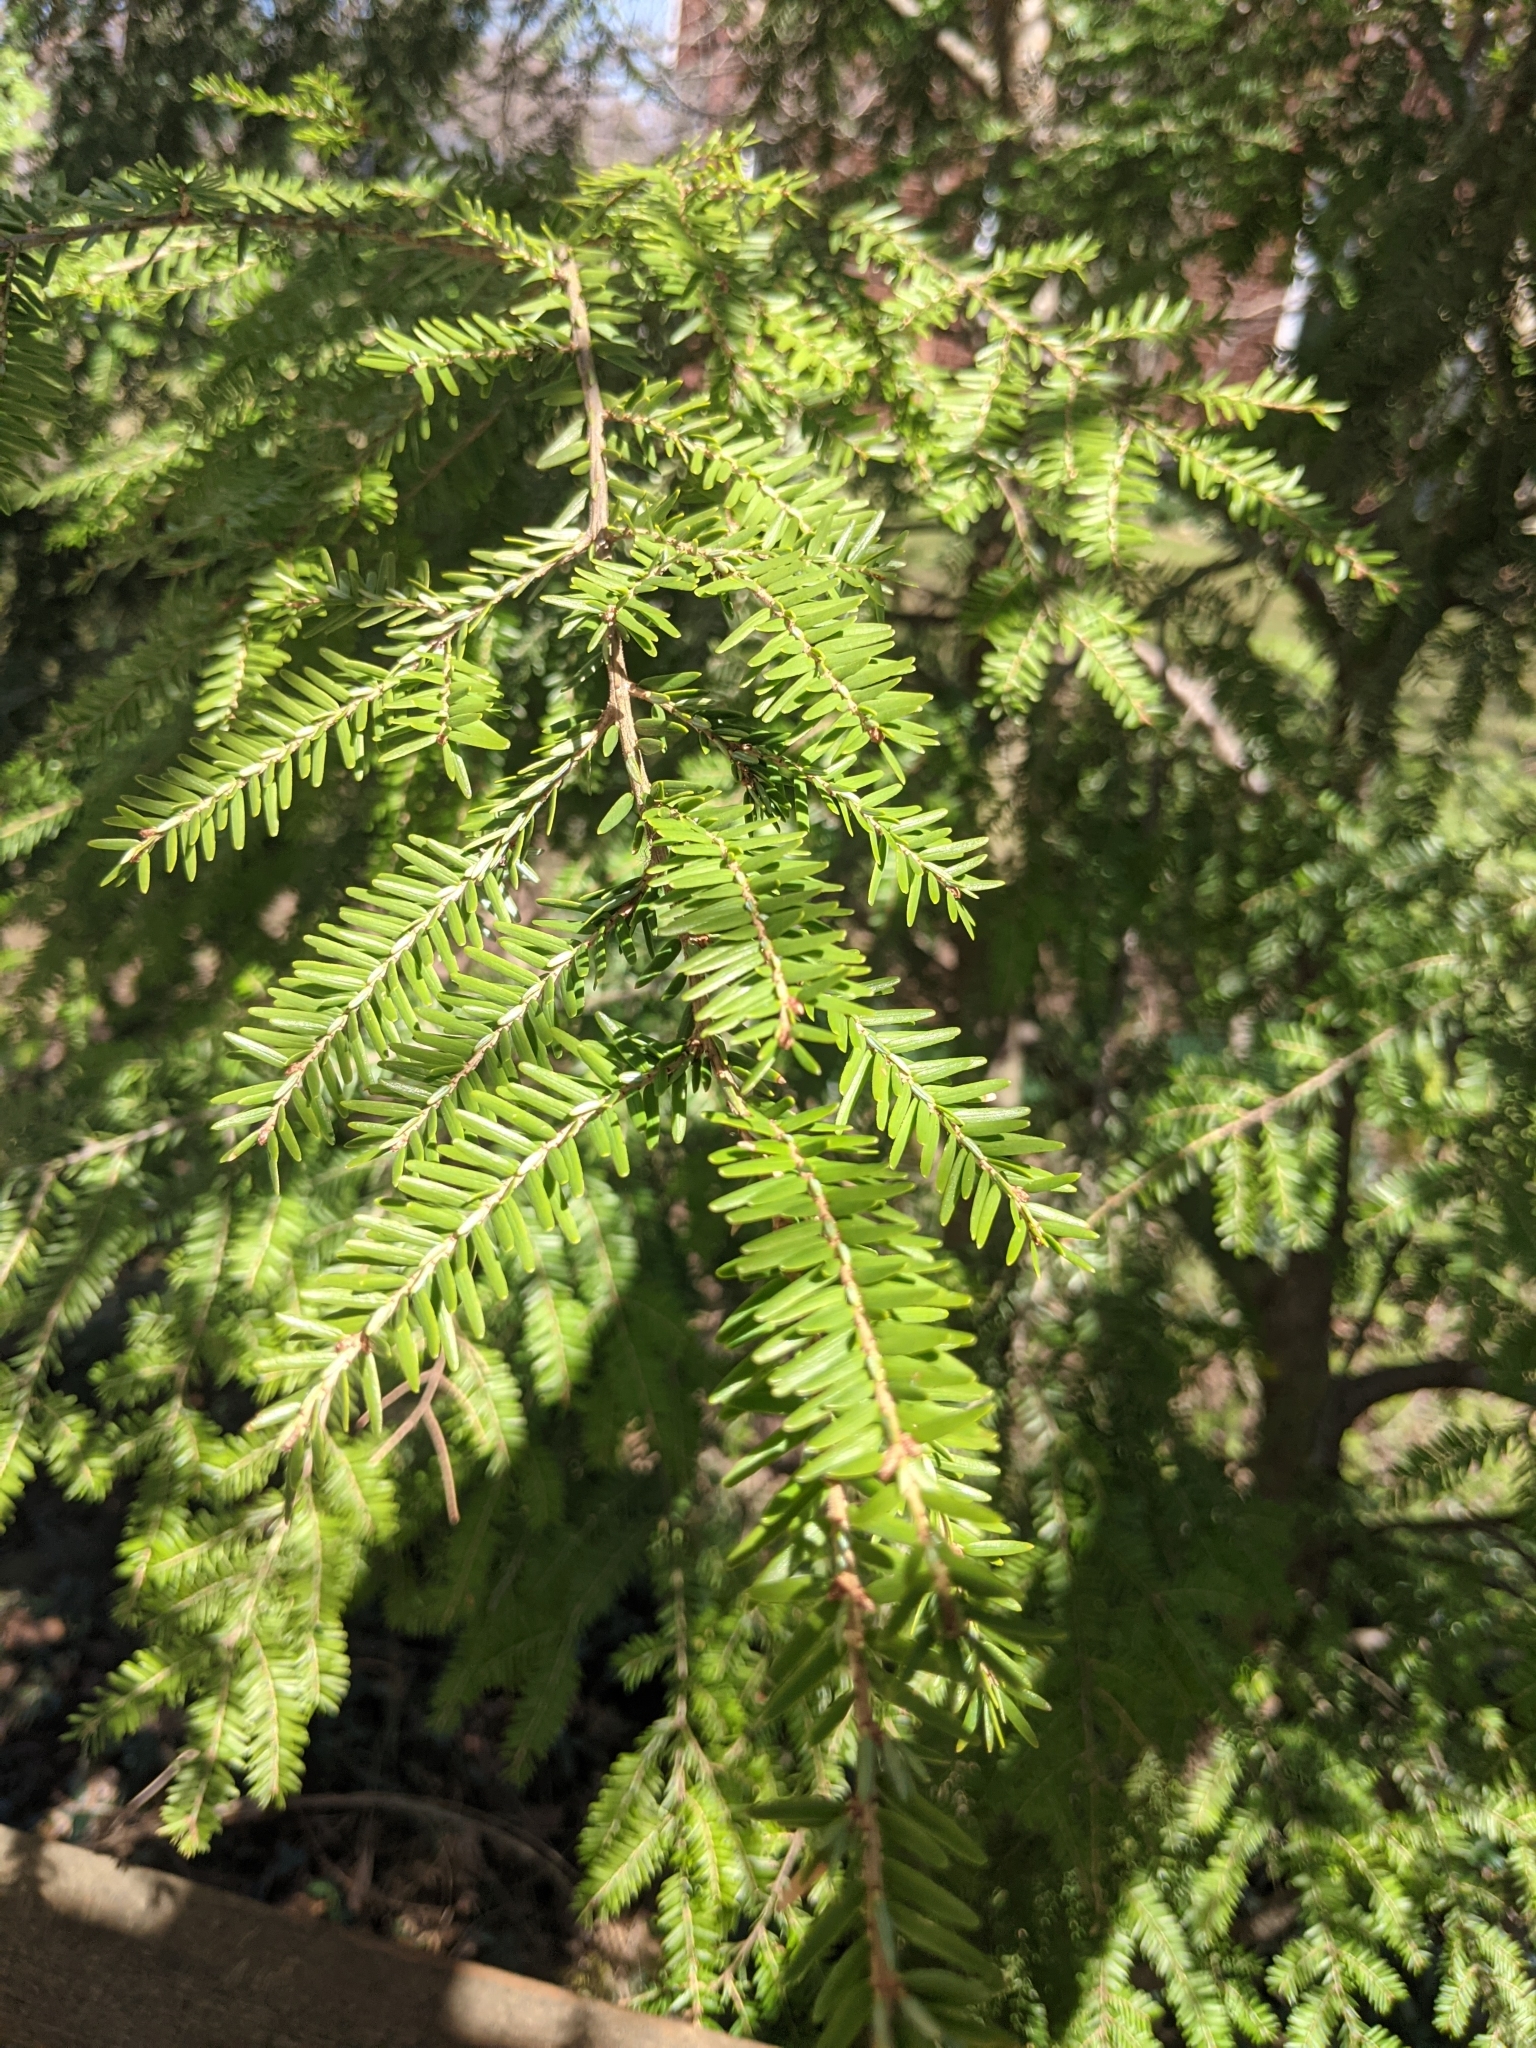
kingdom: Plantae
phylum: Tracheophyta
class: Pinopsida
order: Pinales
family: Pinaceae
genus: Tsuga
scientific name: Tsuga canadensis
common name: Eastern hemlock
